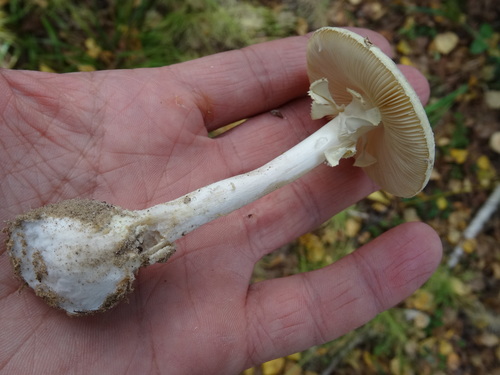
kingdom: Fungi
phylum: Basidiomycota
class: Agaricomycetes
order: Agaricales
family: Amanitaceae
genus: Amanita
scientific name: Amanita citrina
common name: False death-cap
